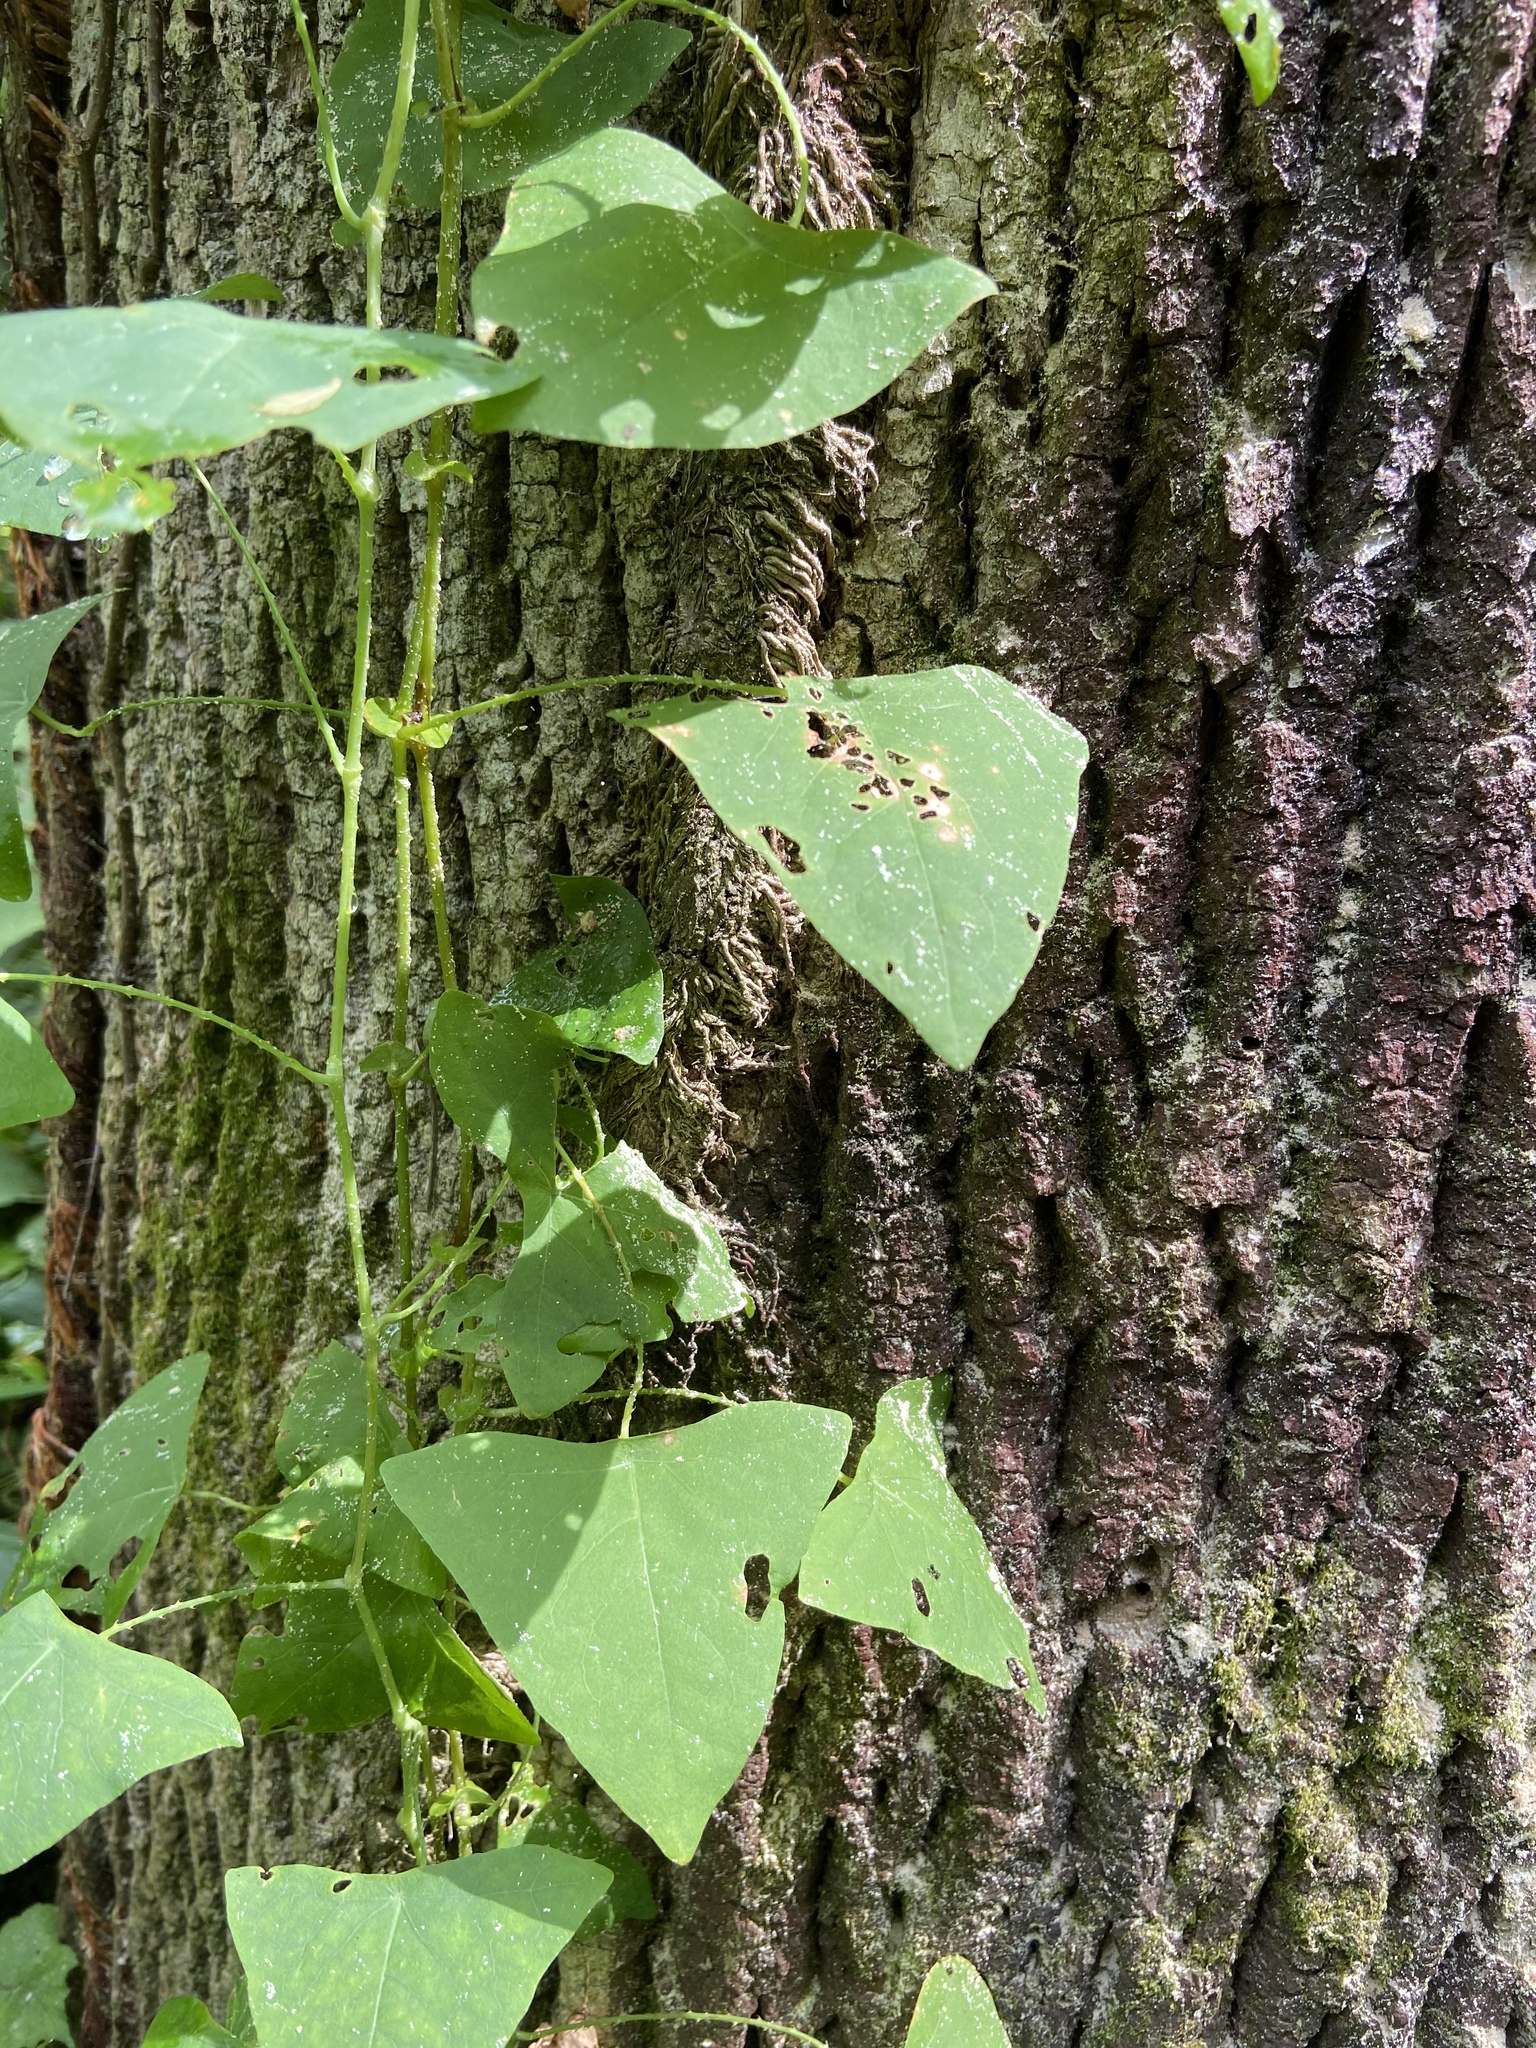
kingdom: Plantae
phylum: Tracheophyta
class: Magnoliopsida
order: Caryophyllales
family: Polygonaceae
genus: Persicaria
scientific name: Persicaria perfoliata
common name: Asiatic tearthumb
